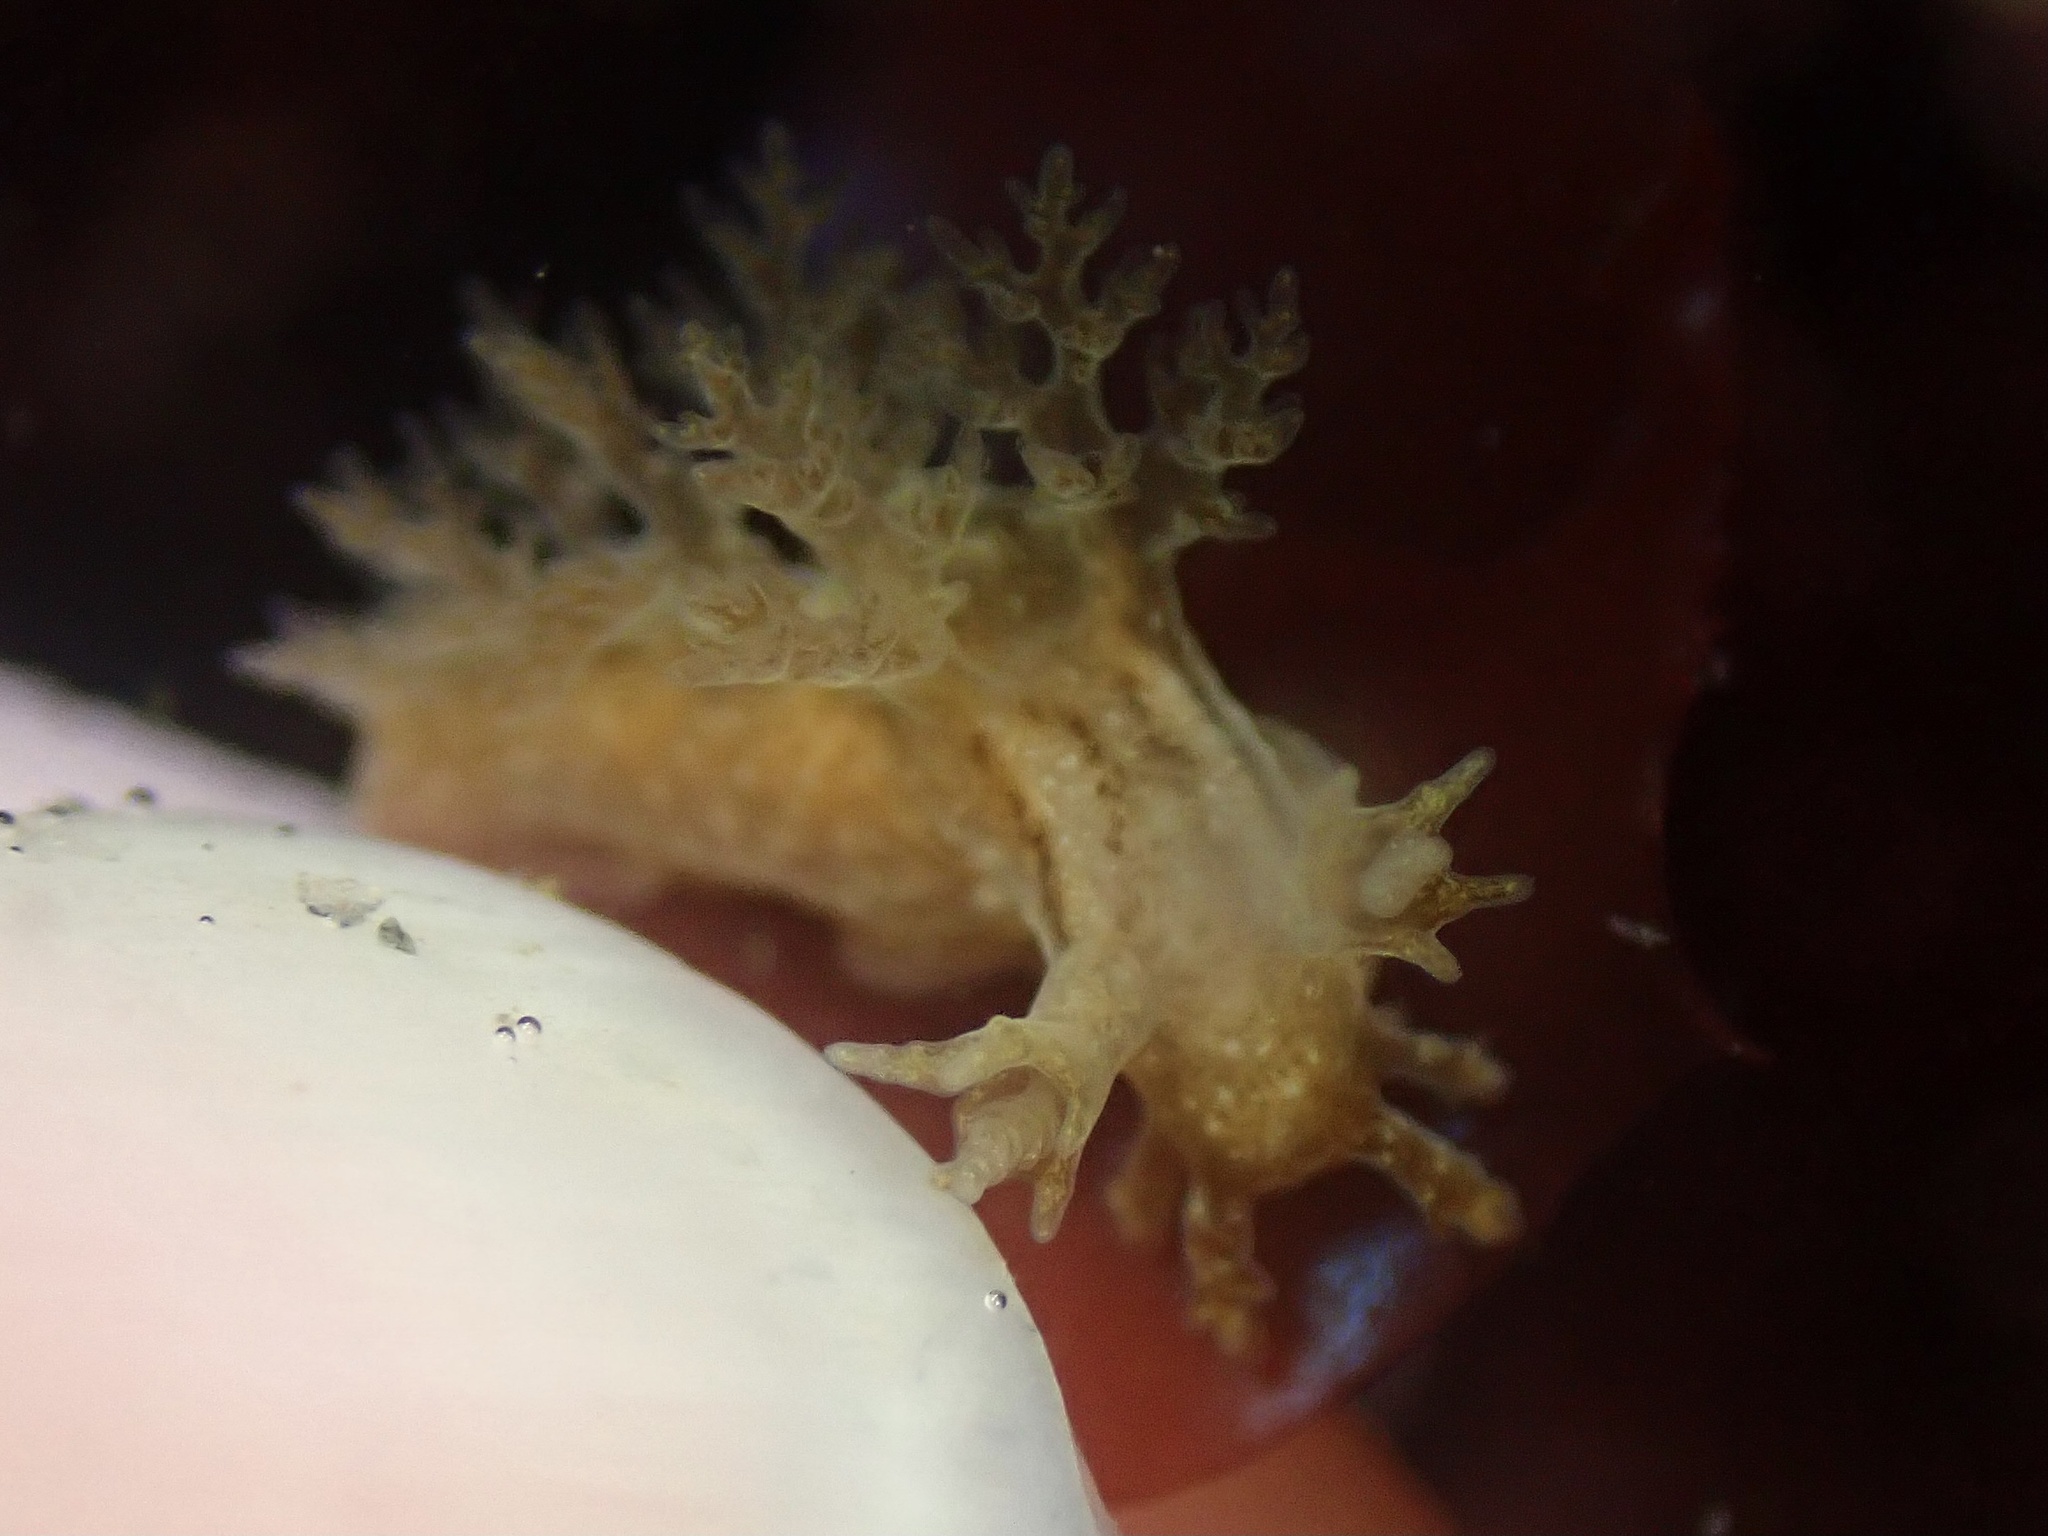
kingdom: Animalia
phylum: Mollusca
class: Gastropoda
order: Nudibranchia
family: Dendronotidae
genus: Dendronotus
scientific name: Dendronotus subramosus
